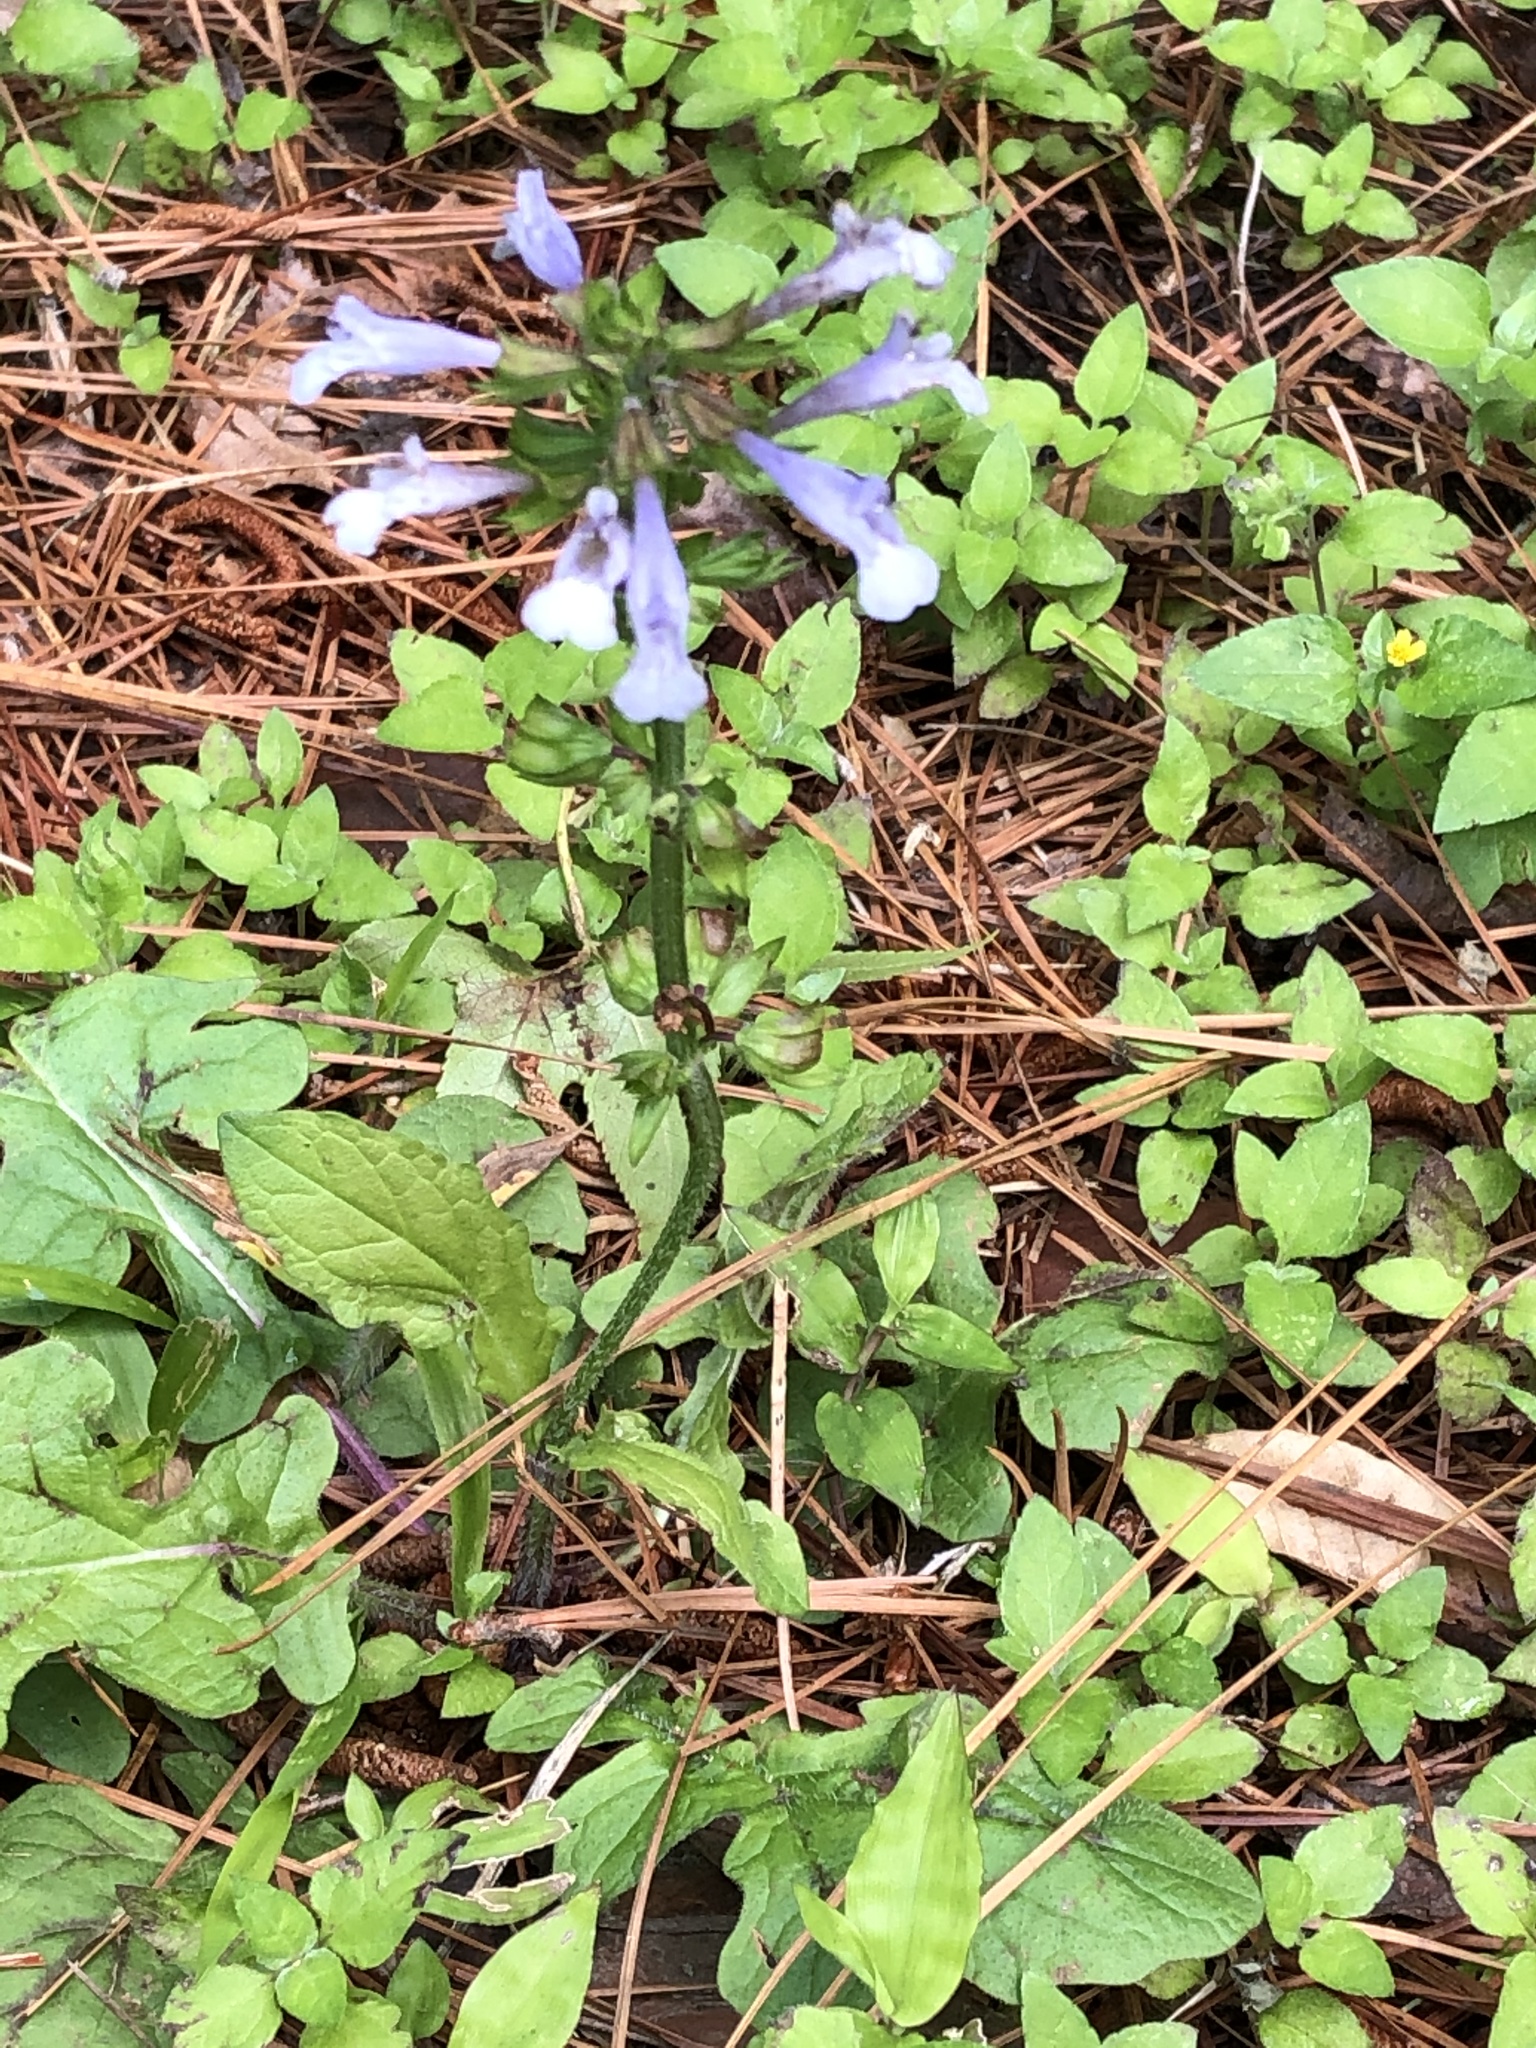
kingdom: Plantae
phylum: Tracheophyta
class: Magnoliopsida
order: Lamiales
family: Lamiaceae
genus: Salvia
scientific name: Salvia lyrata
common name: Cancerweed
